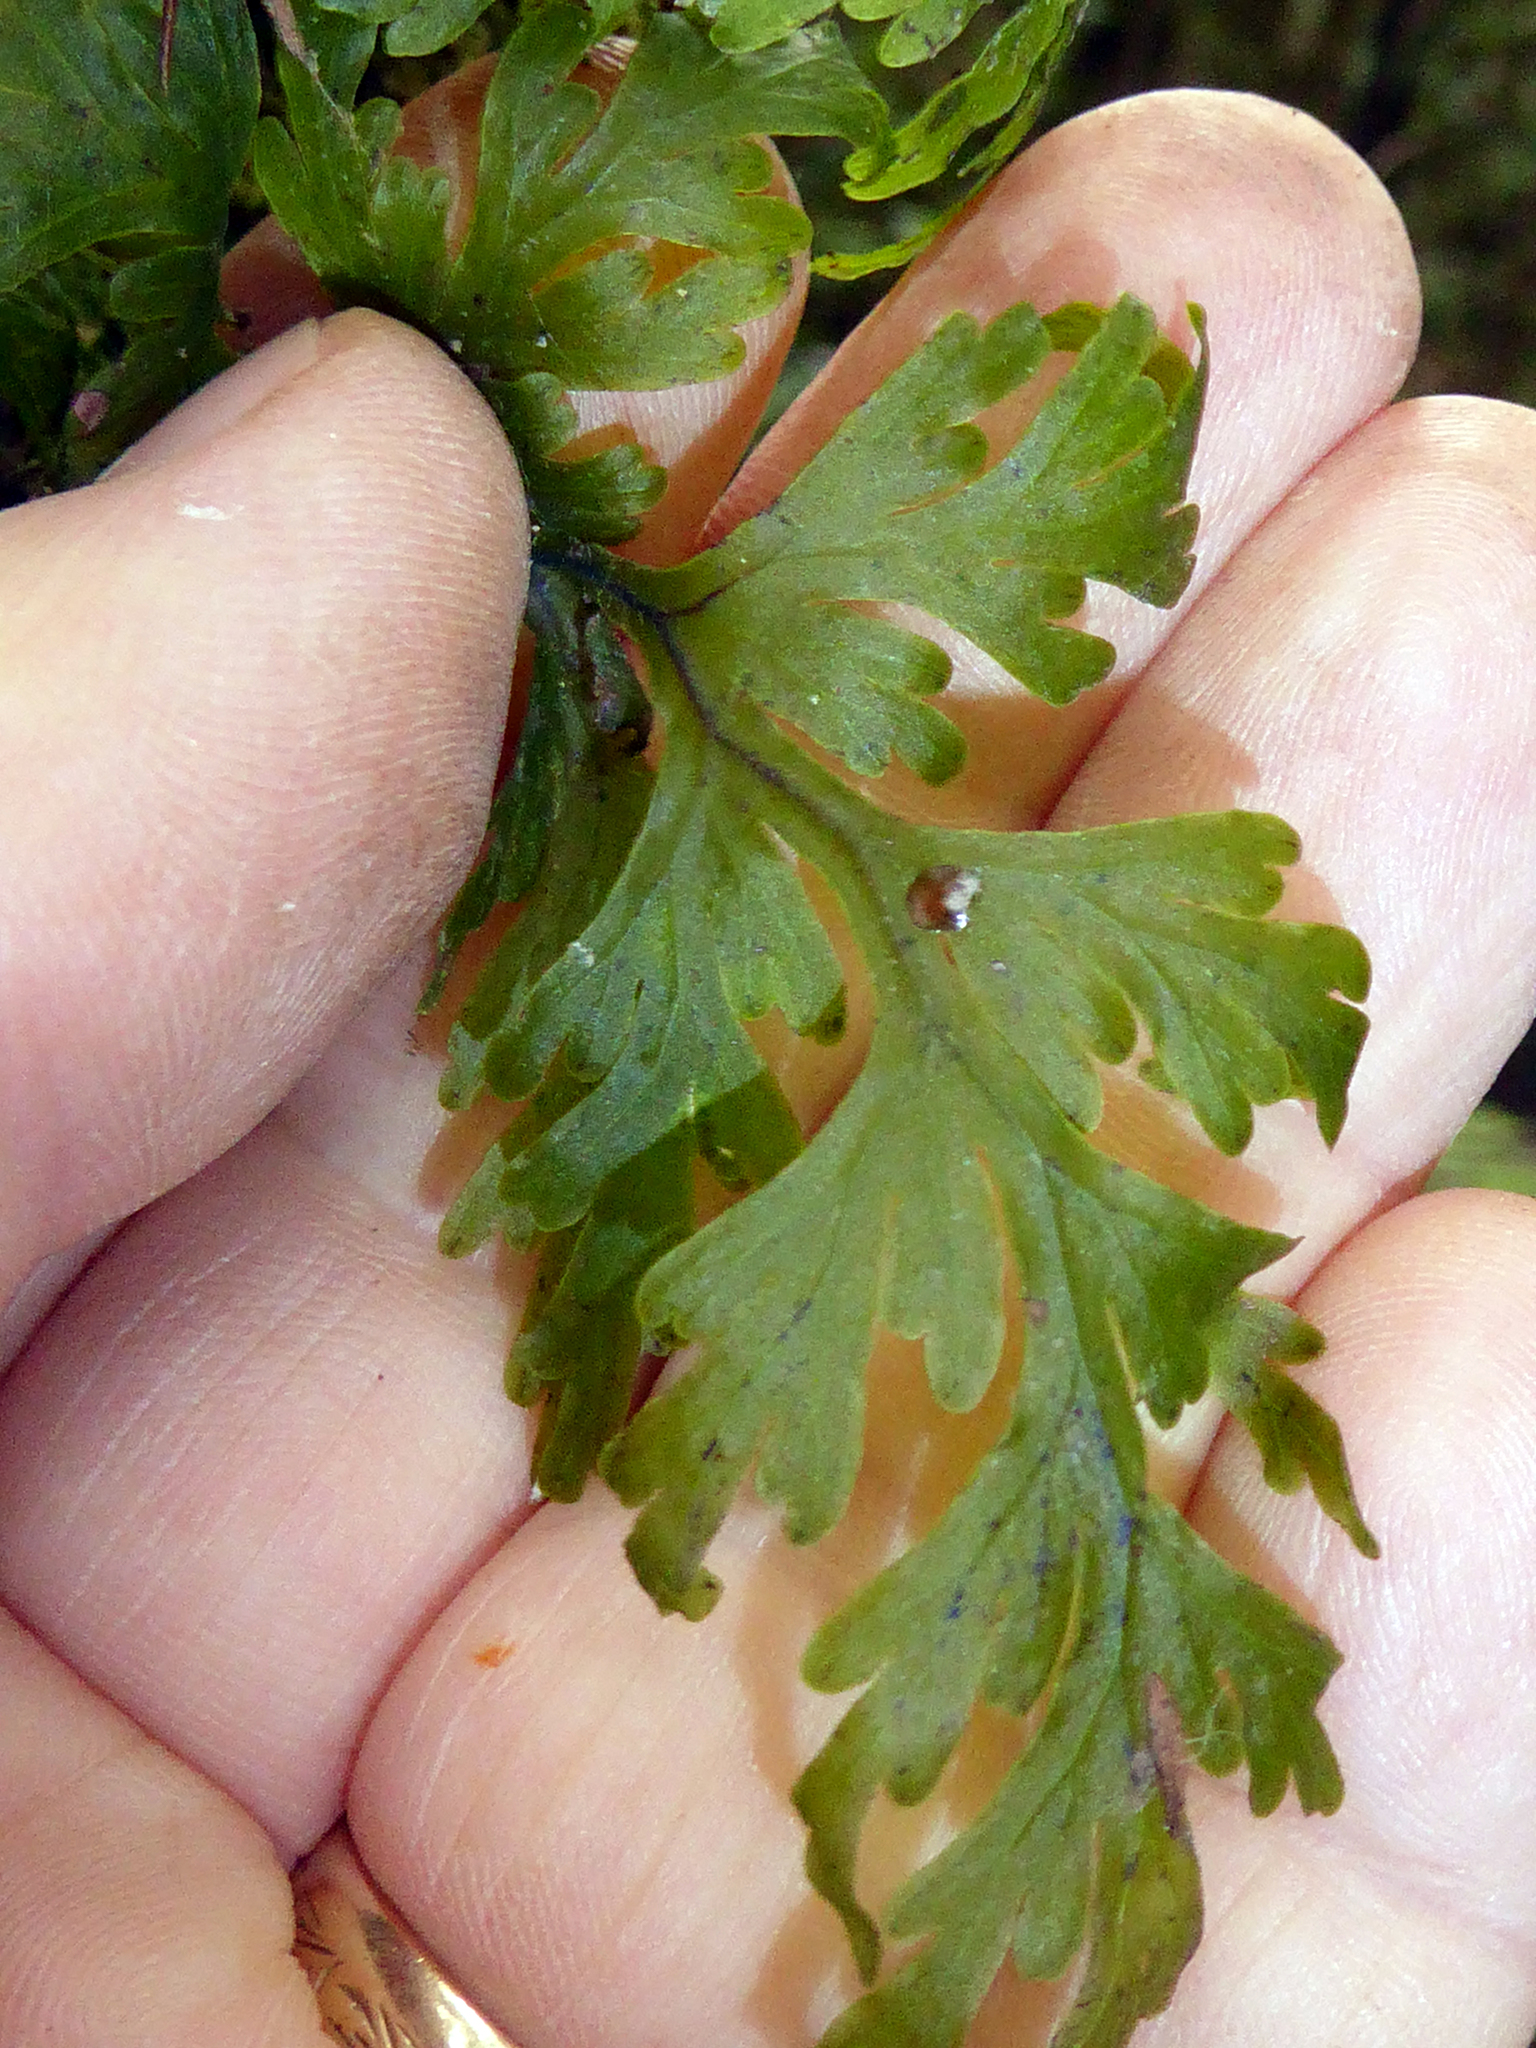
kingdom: Plantae
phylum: Tracheophyta
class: Polypodiopsida
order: Hymenophyllales
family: Hymenophyllaceae
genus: Hymenophyllum
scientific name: Hymenophyllum dilatatum
